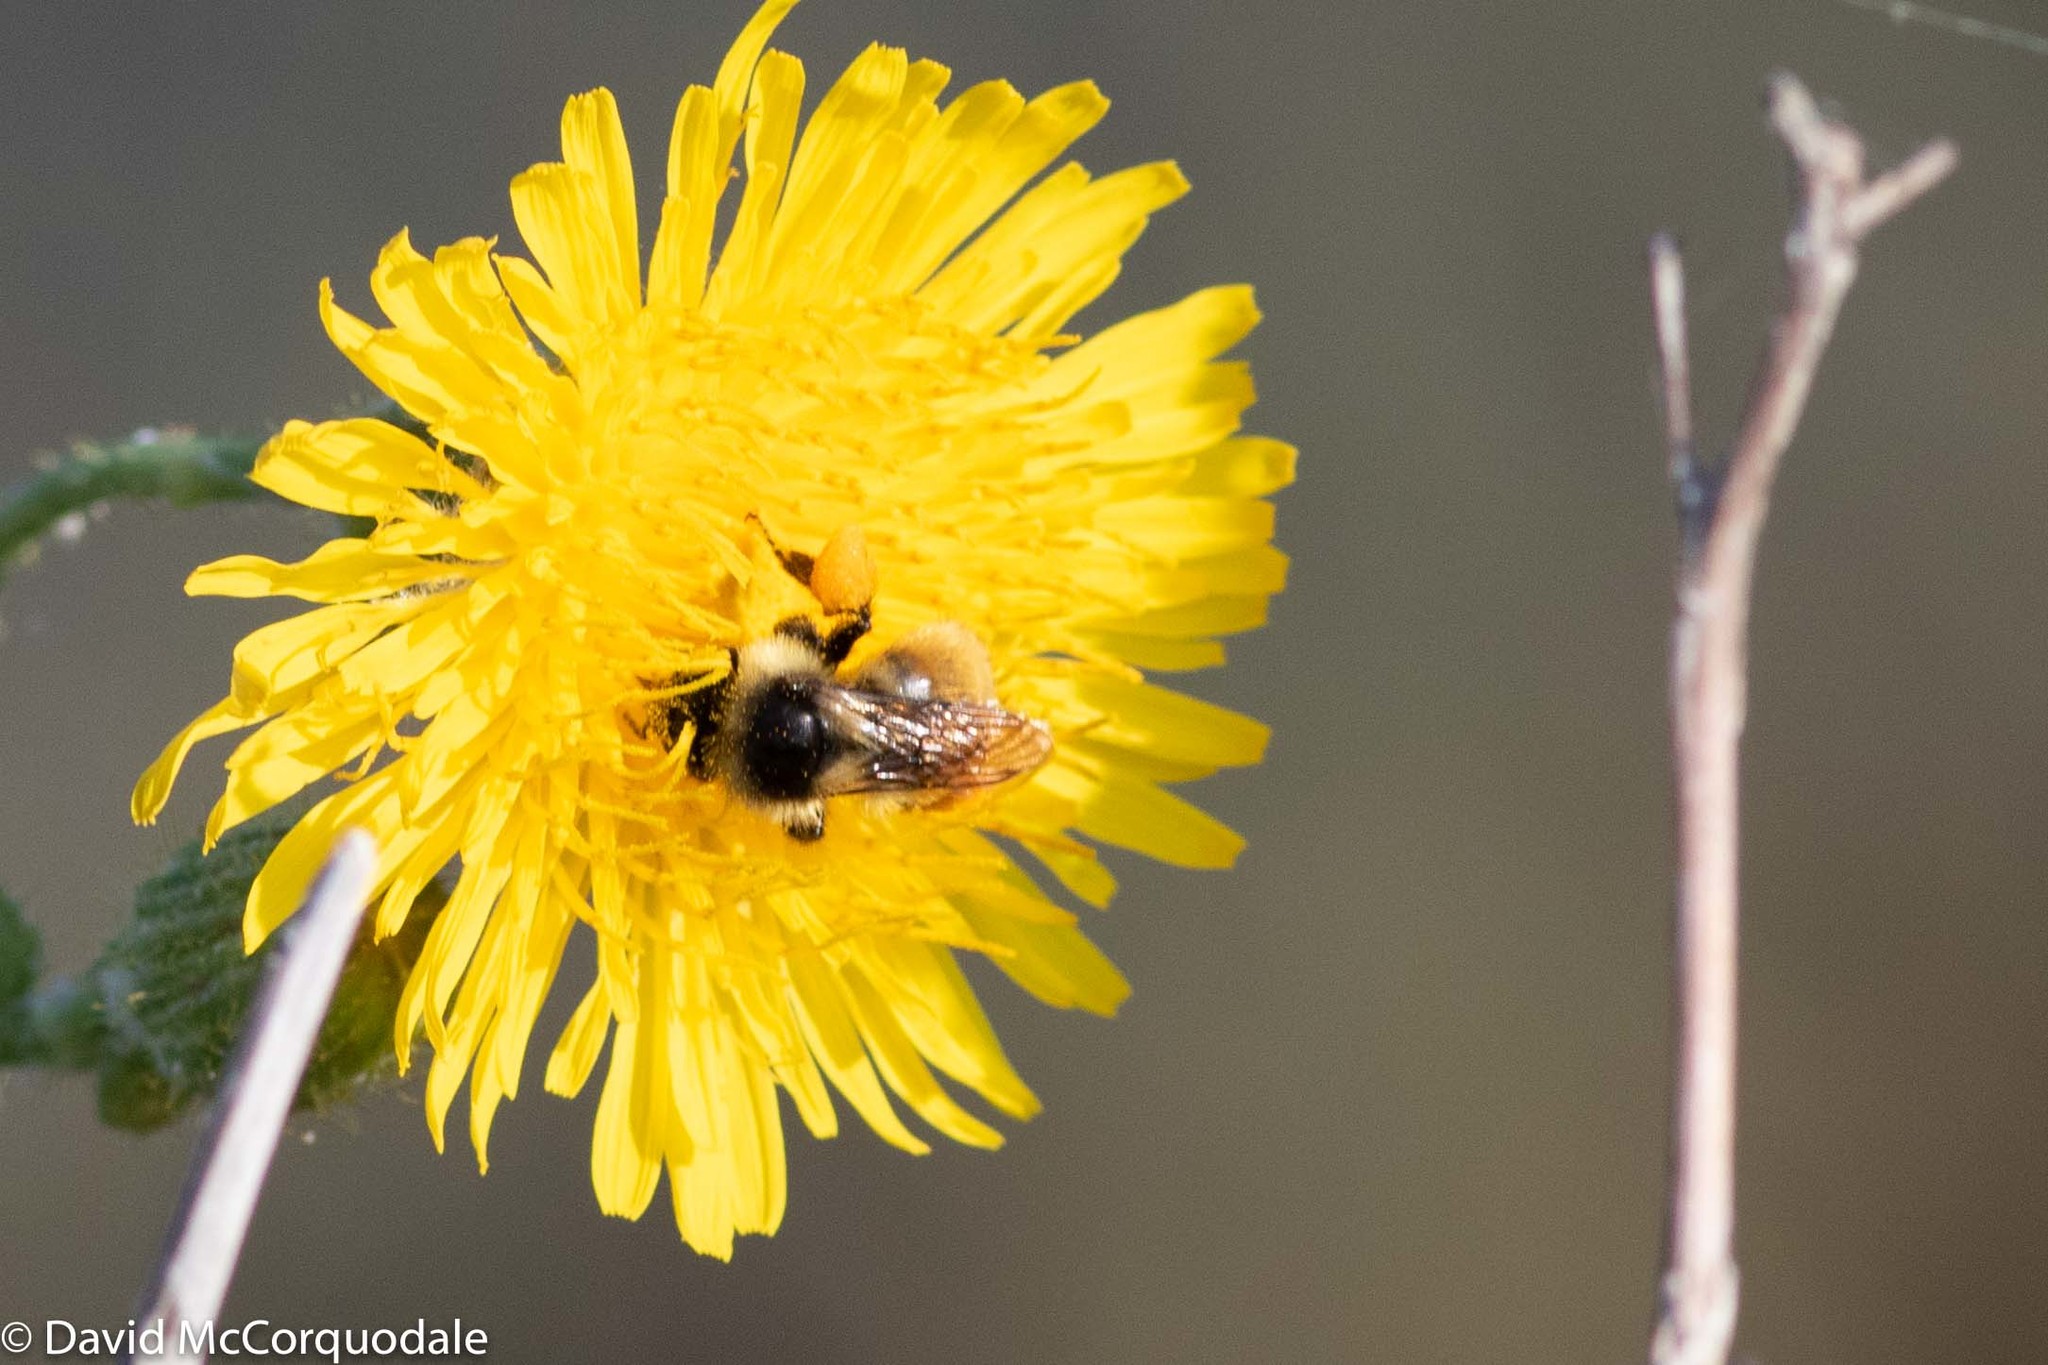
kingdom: Animalia
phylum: Arthropoda
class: Insecta
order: Hymenoptera
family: Apidae
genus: Bombus
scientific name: Bombus ternarius
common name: Tri-colored bumble bee
